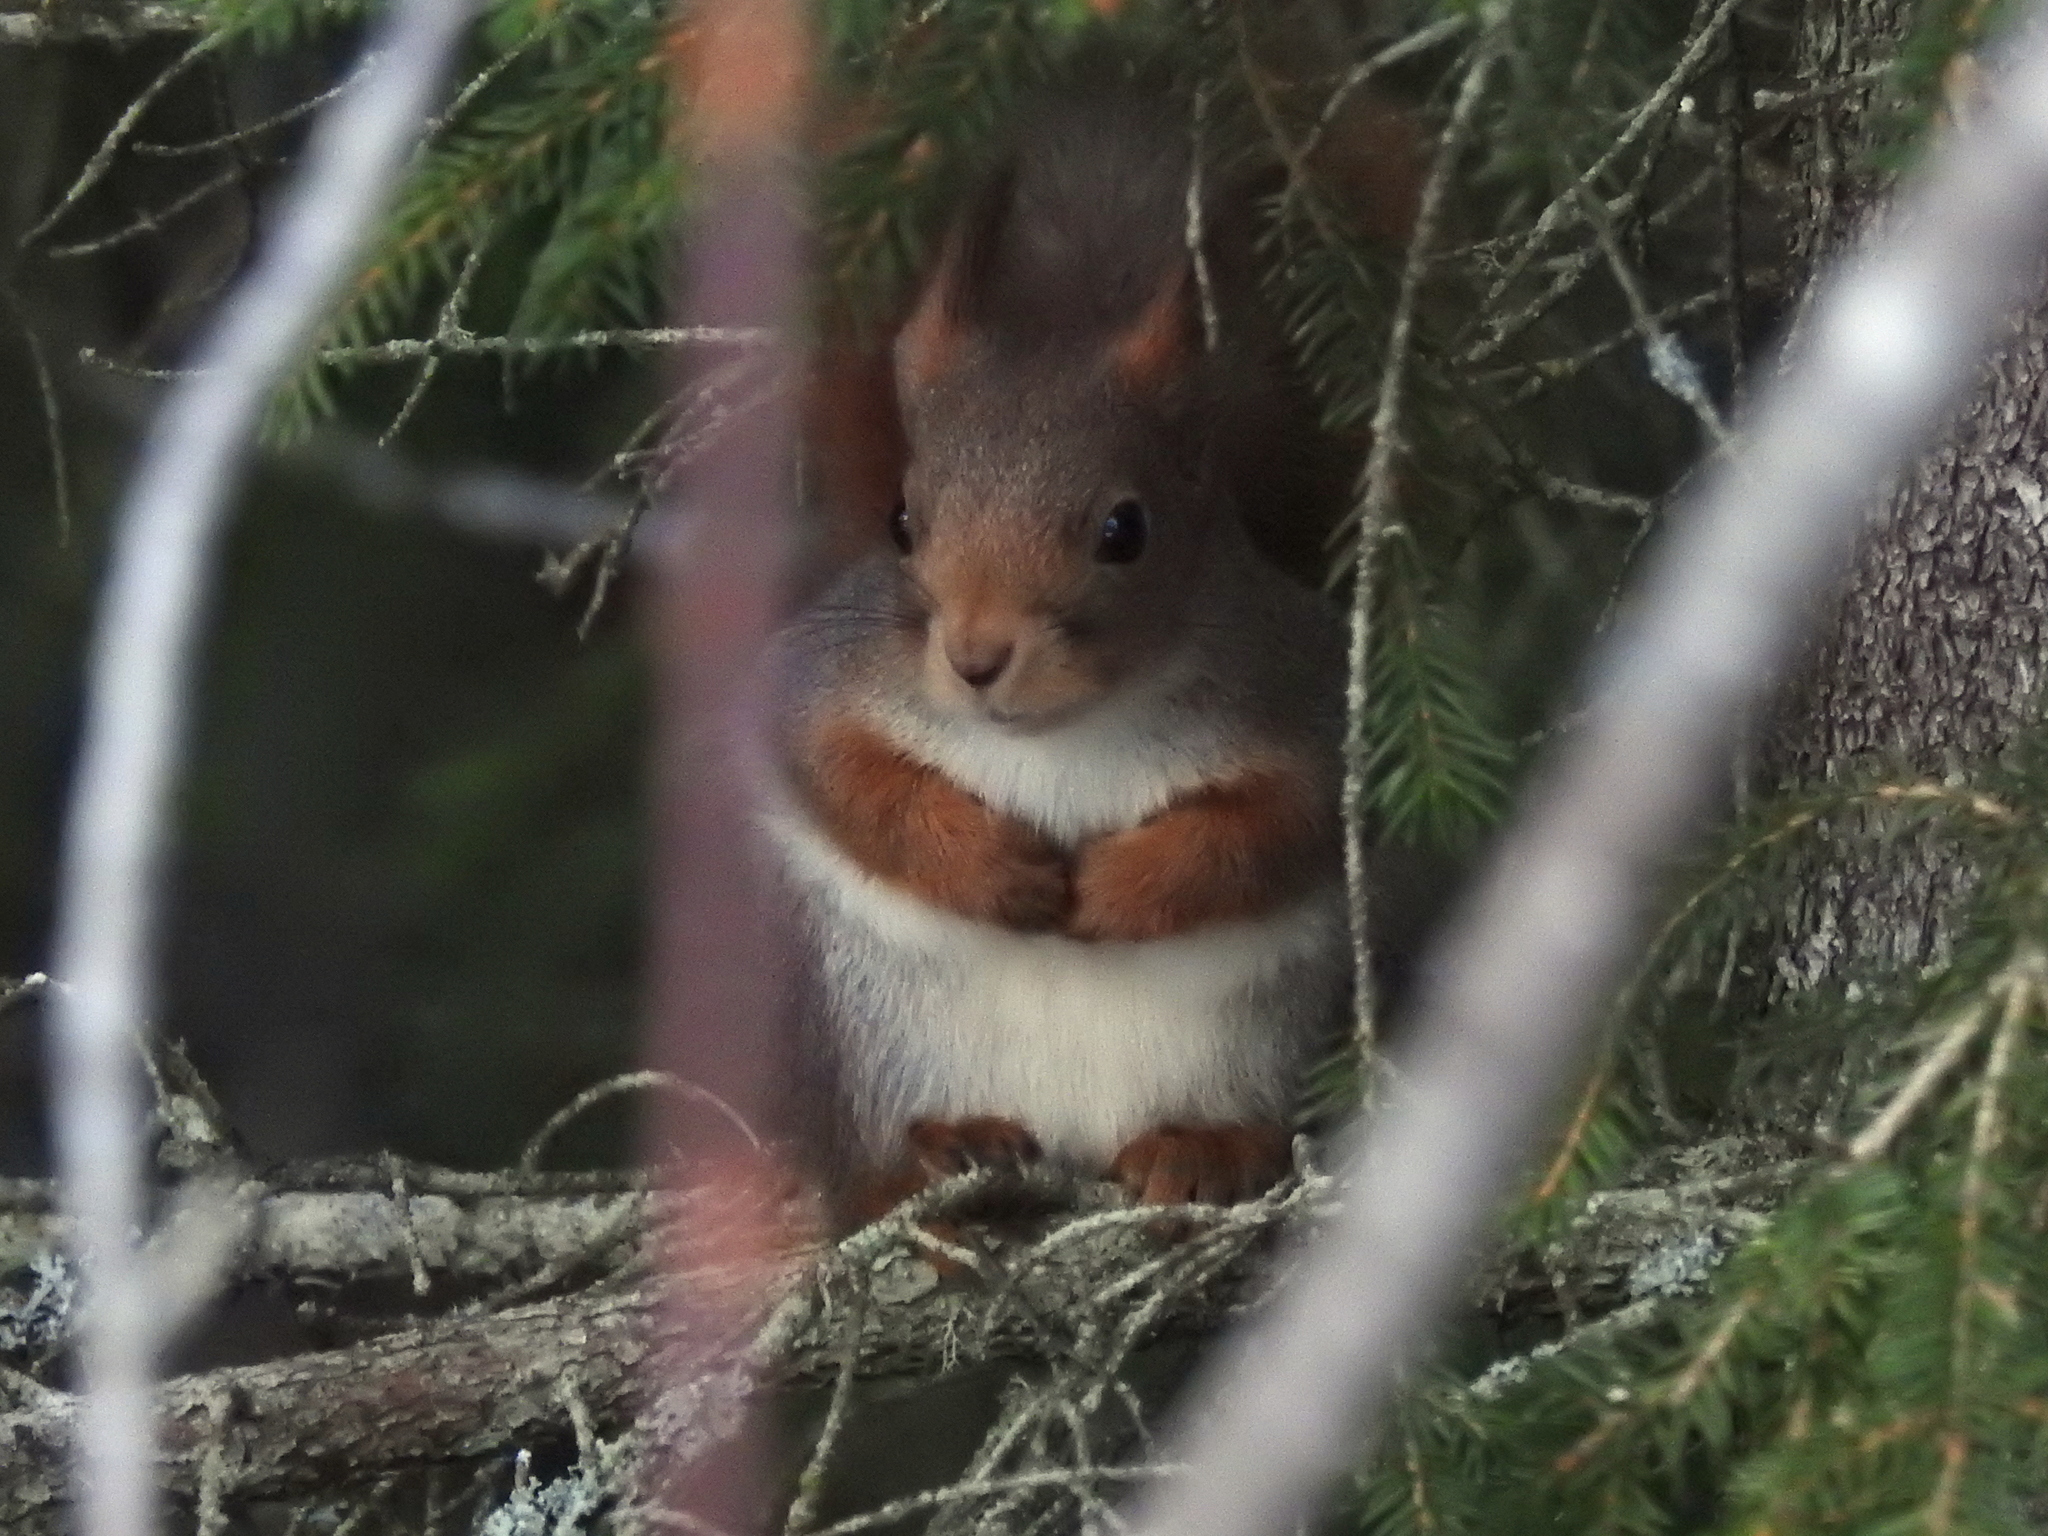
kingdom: Animalia
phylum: Chordata
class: Mammalia
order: Rodentia
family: Sciuridae
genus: Sciurus
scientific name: Sciurus vulgaris
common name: Eurasian red squirrel
